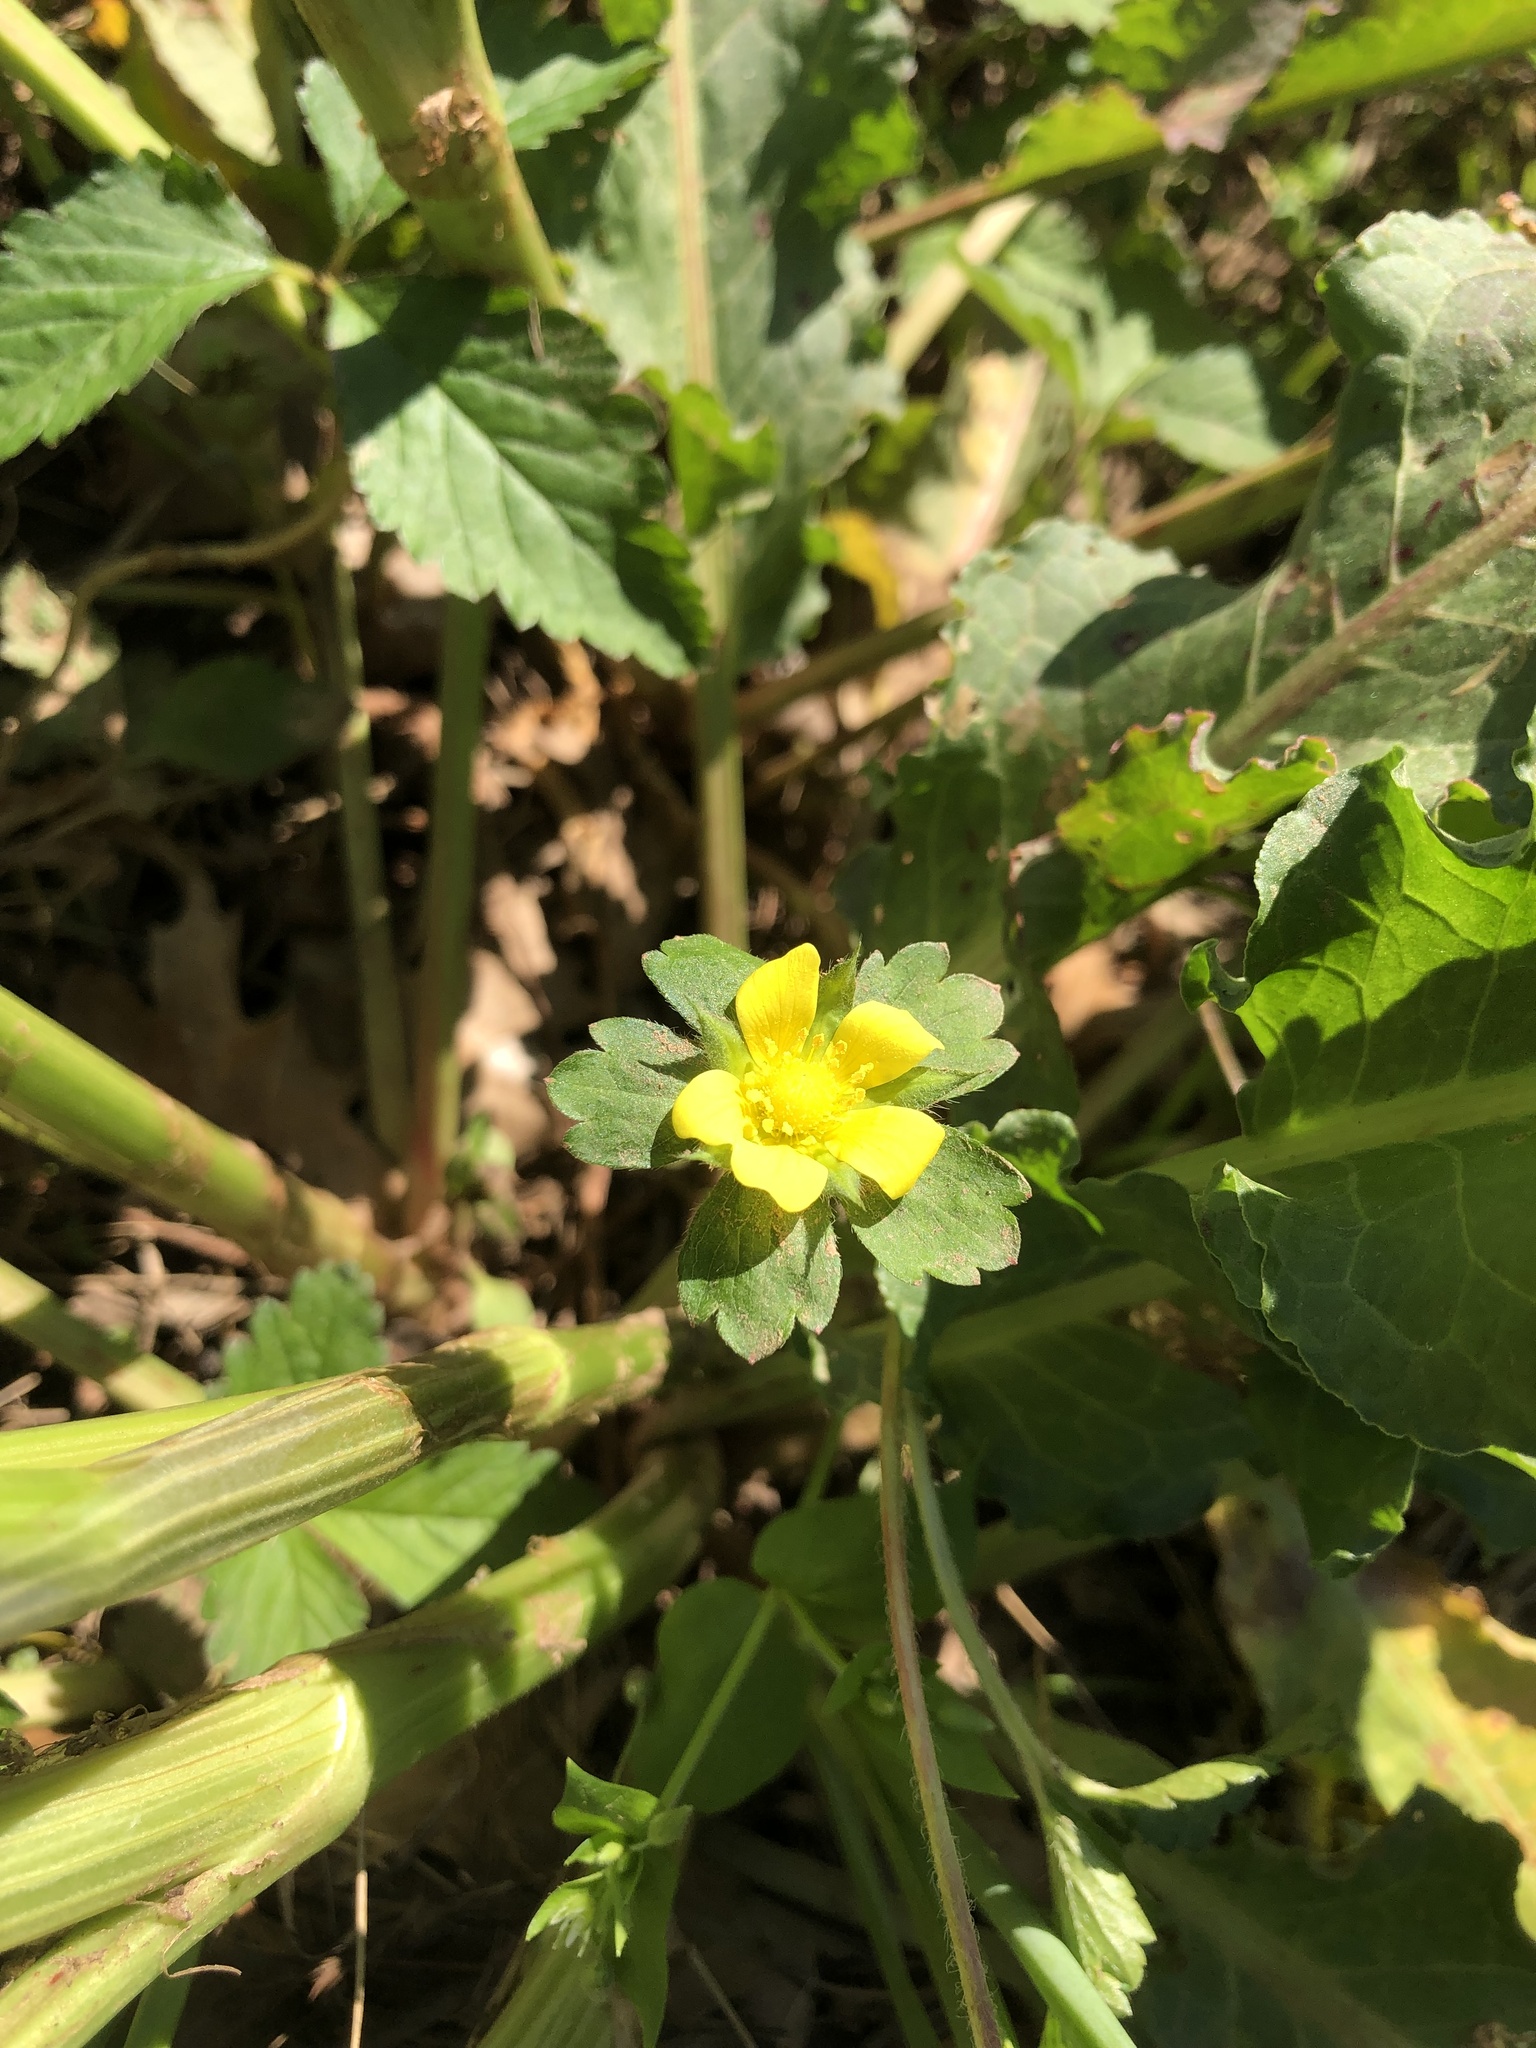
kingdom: Plantae
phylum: Tracheophyta
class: Magnoliopsida
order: Rosales
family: Rosaceae
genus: Potentilla
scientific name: Potentilla indica
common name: Yellow-flowered strawberry
